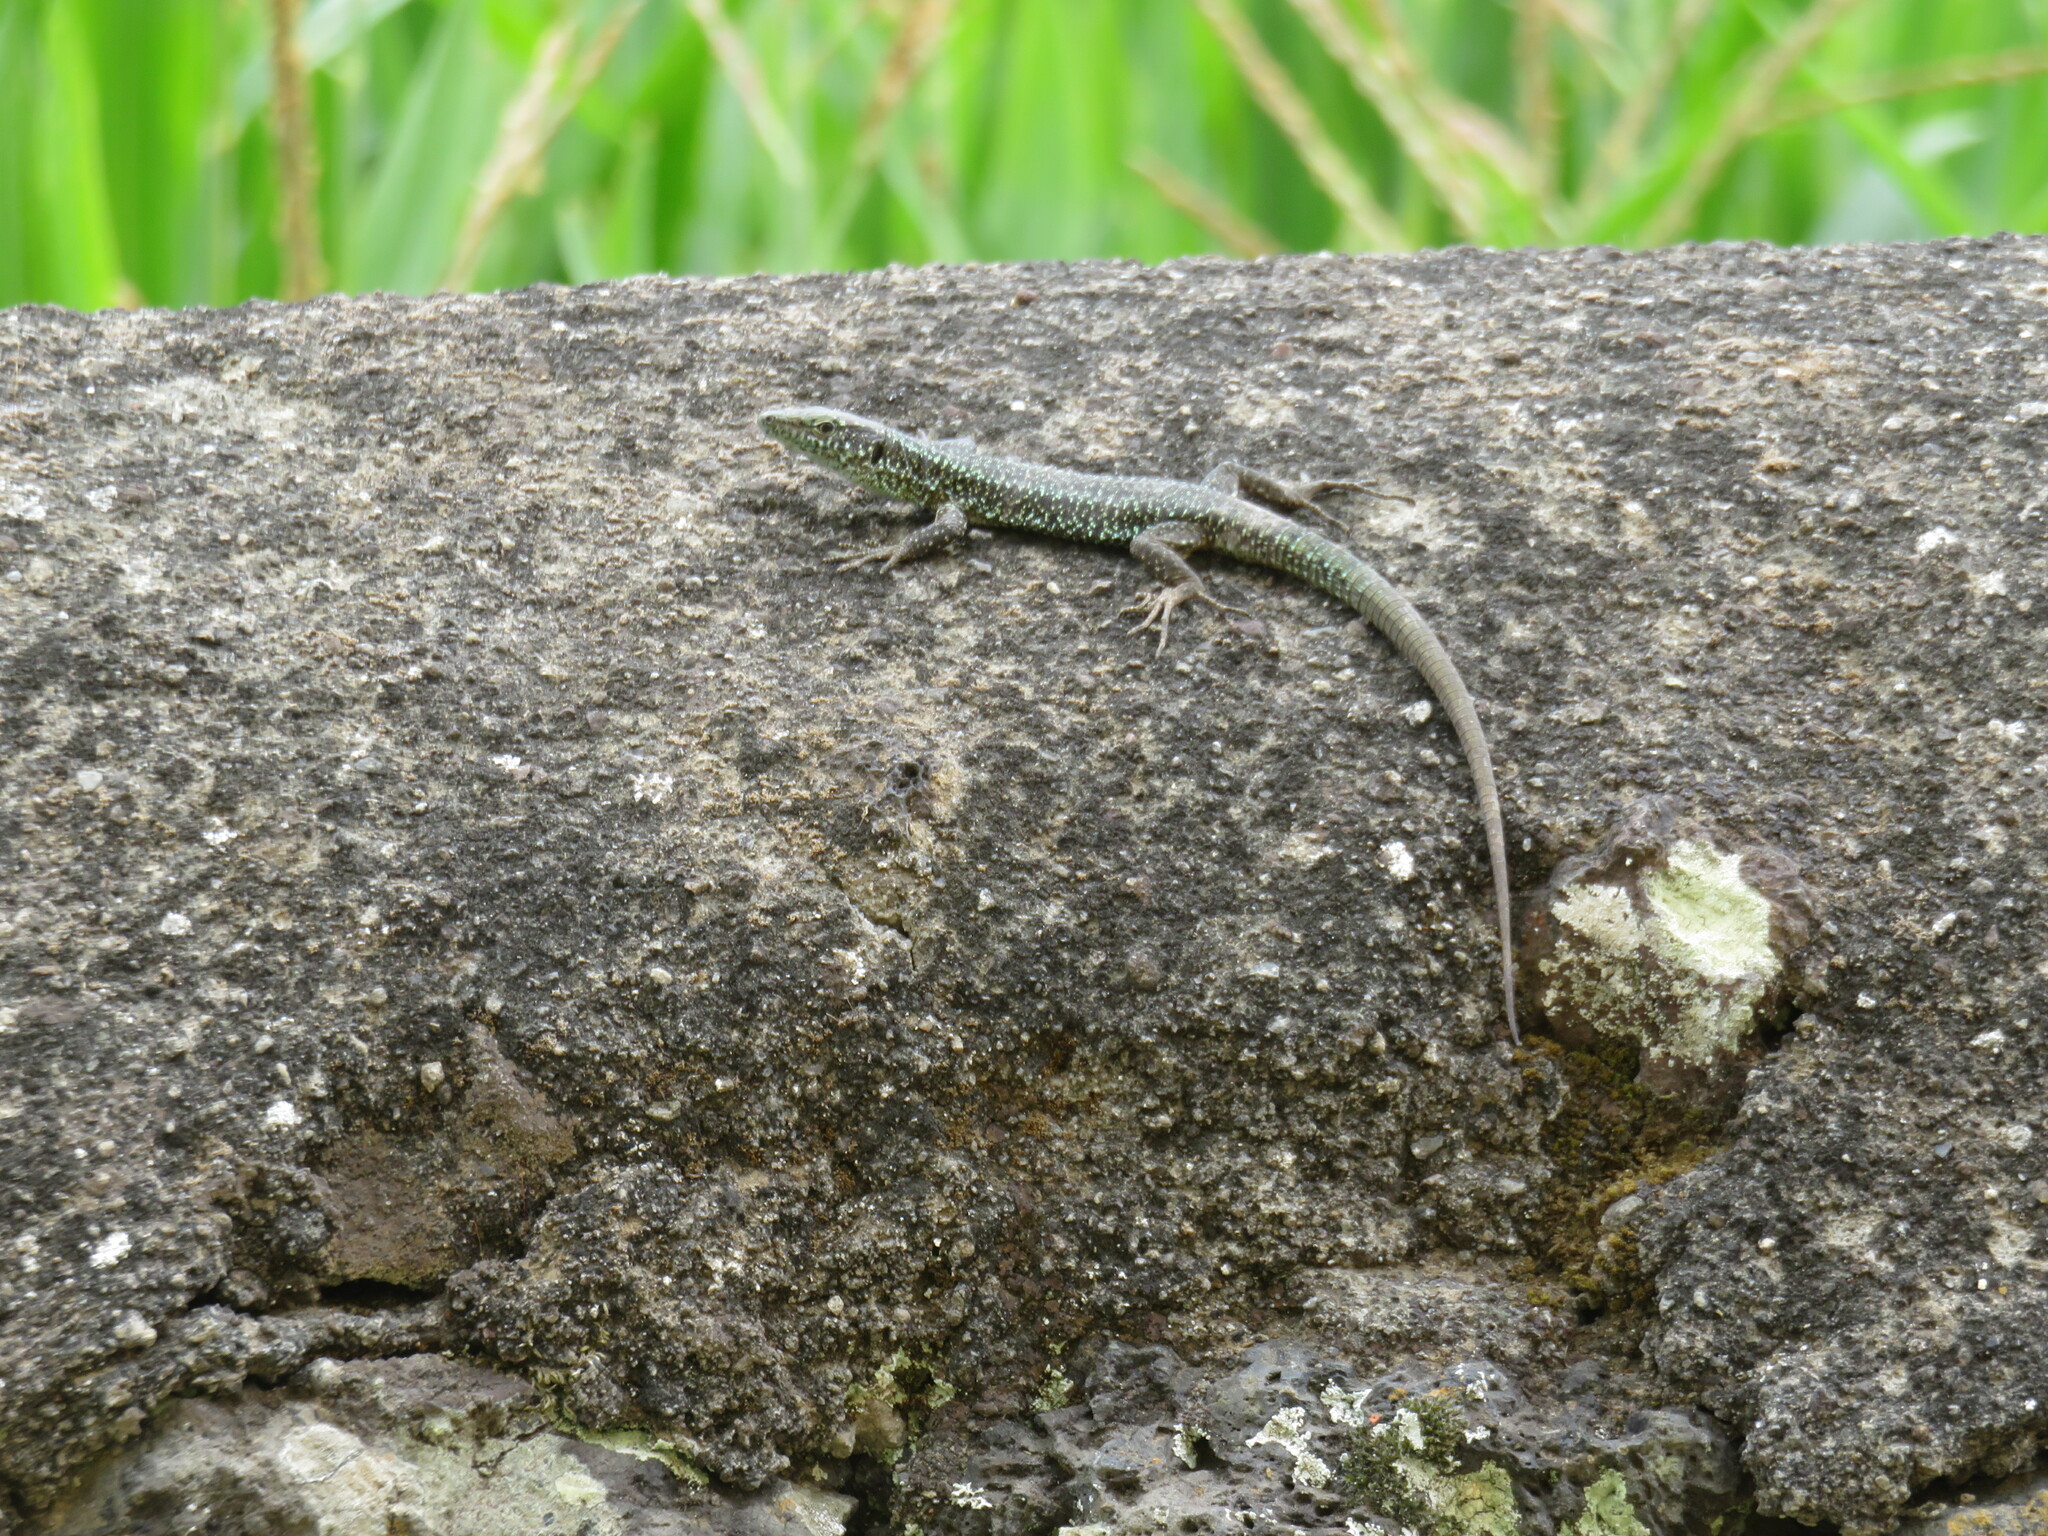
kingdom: Animalia
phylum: Chordata
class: Squamata
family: Lacertidae
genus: Teira
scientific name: Teira dugesii
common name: Madeira lizard
